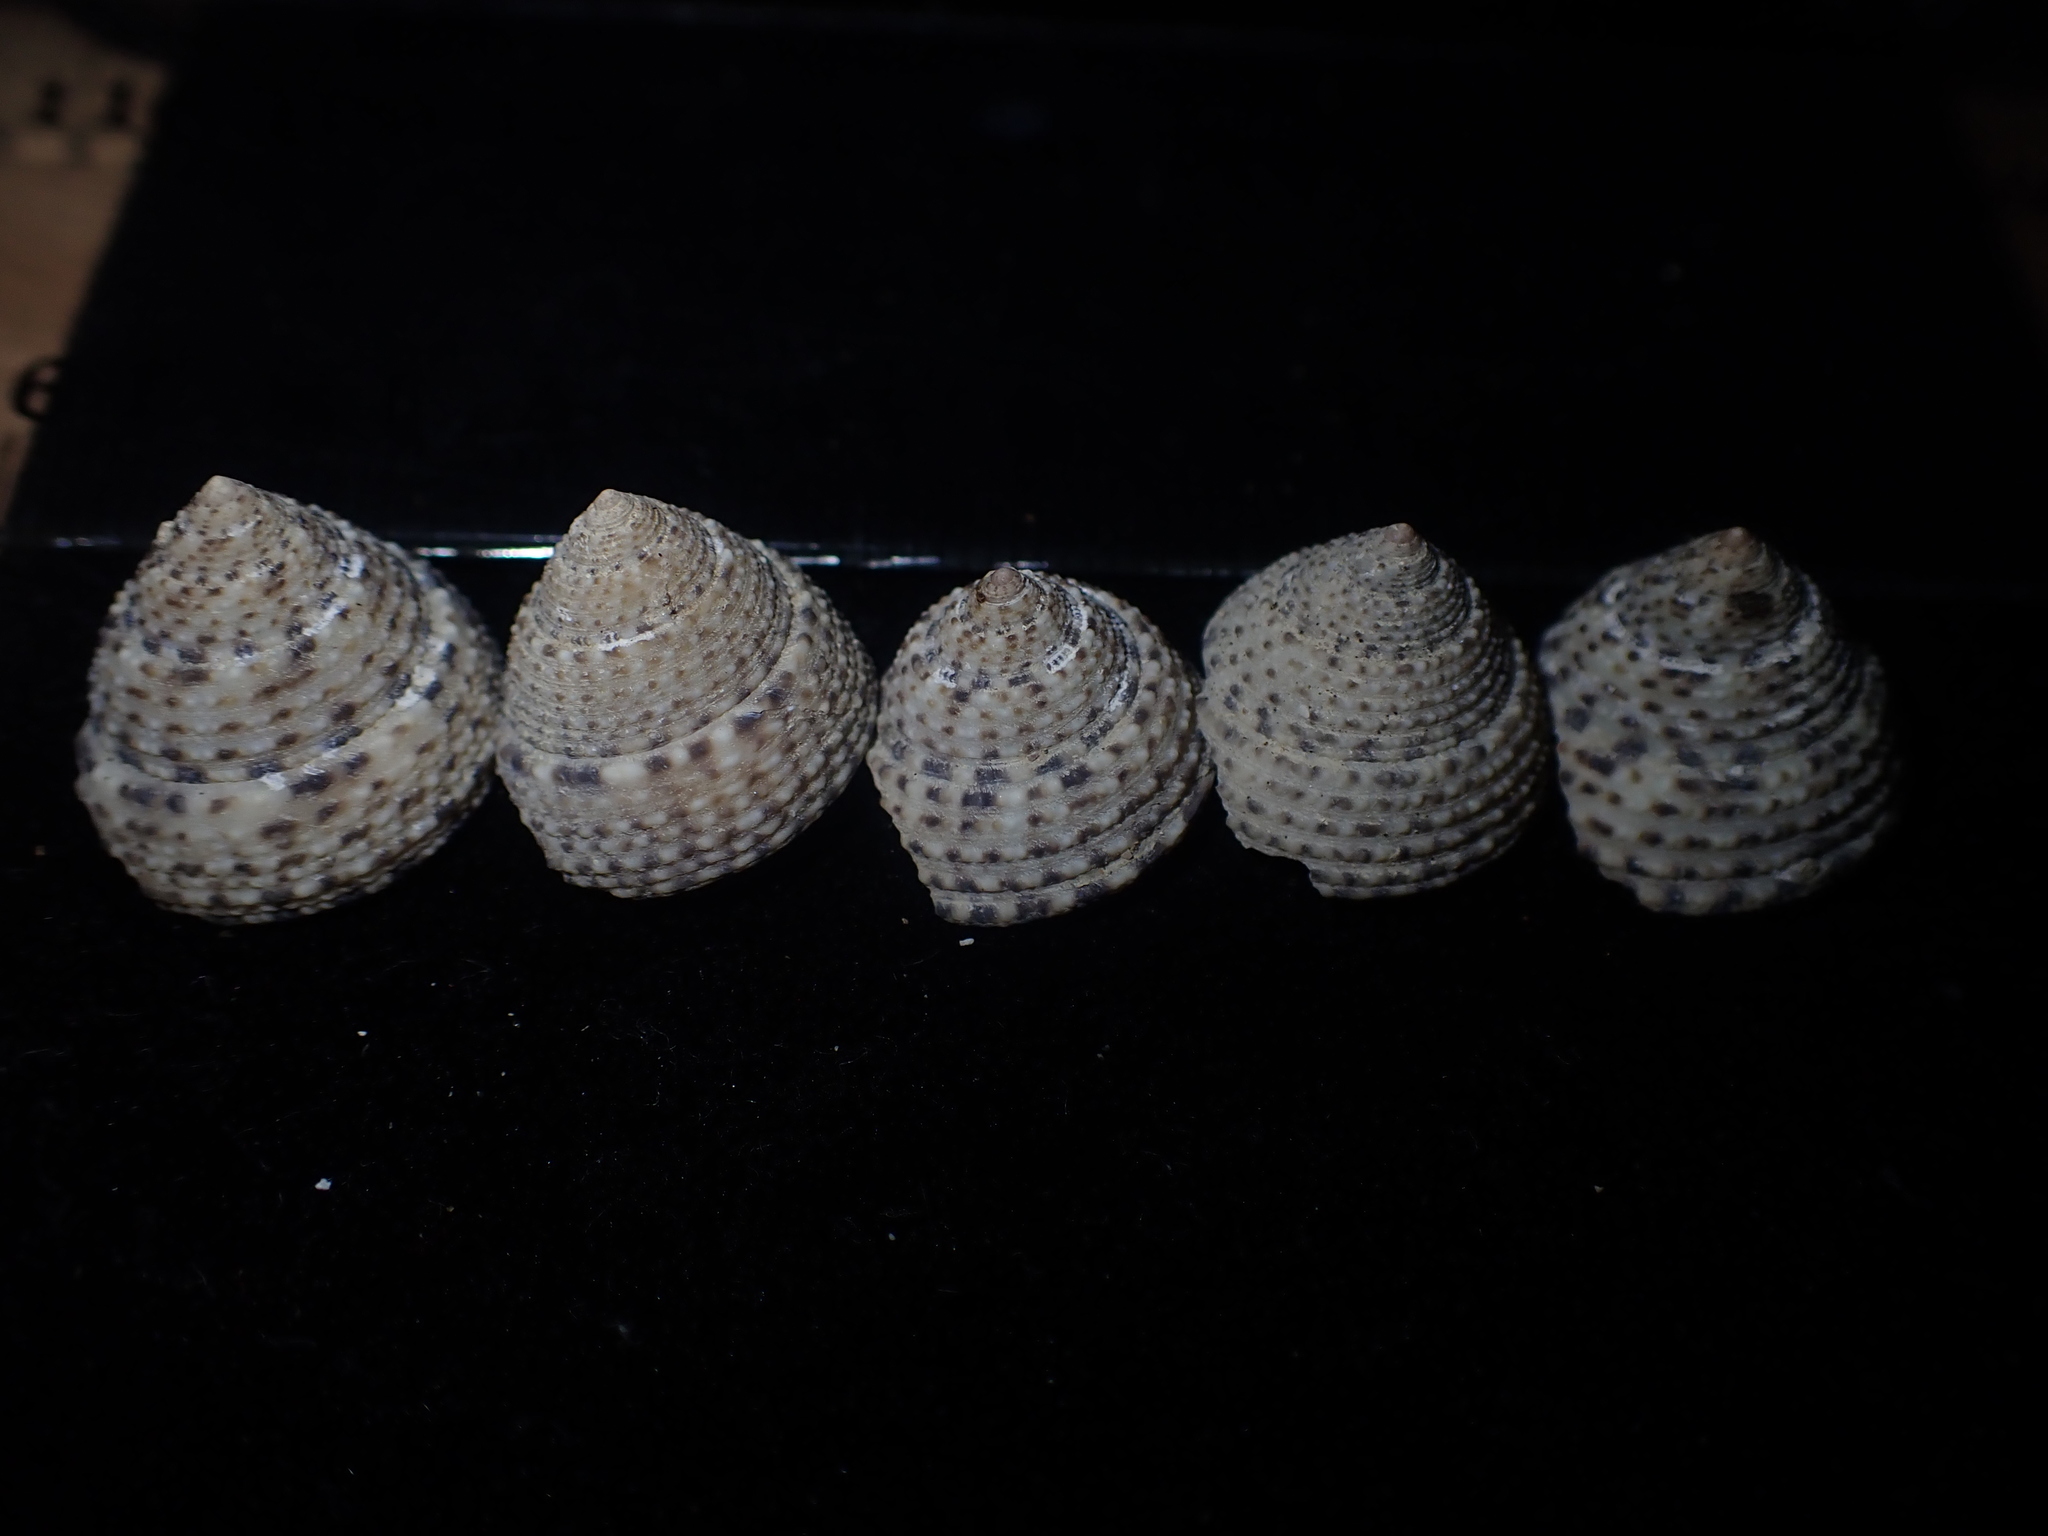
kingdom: Animalia
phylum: Mollusca
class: Gastropoda
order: Trochida
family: Trochidae
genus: Coelotrochus
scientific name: Coelotrochus tiaratus
